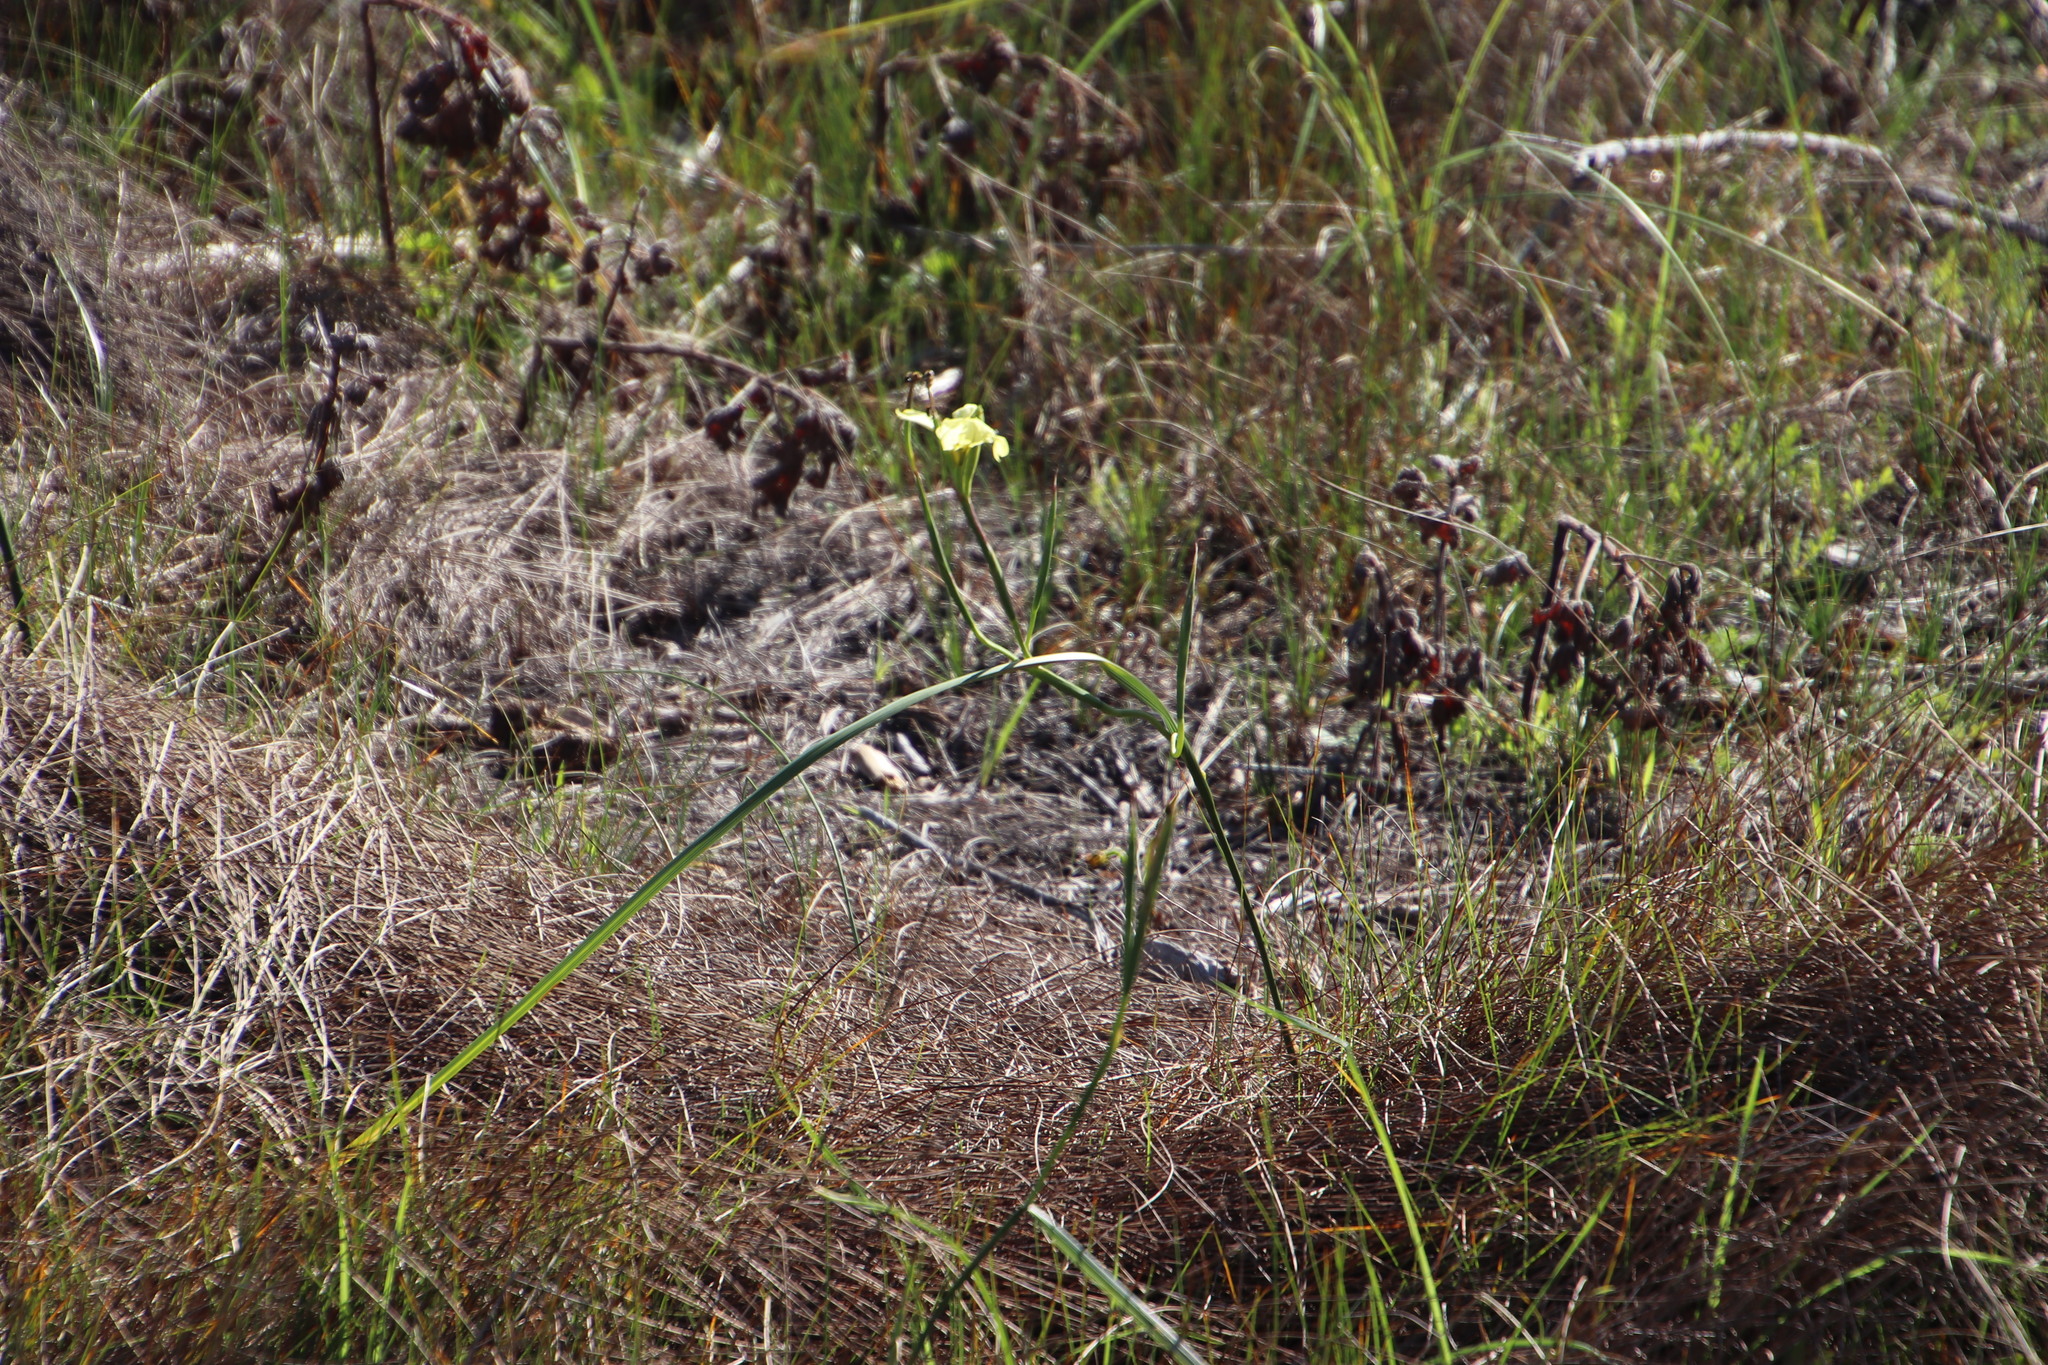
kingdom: Plantae
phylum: Tracheophyta
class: Liliopsida
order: Asparagales
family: Iridaceae
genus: Moraea
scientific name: Moraea collina
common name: Cape-tulip
